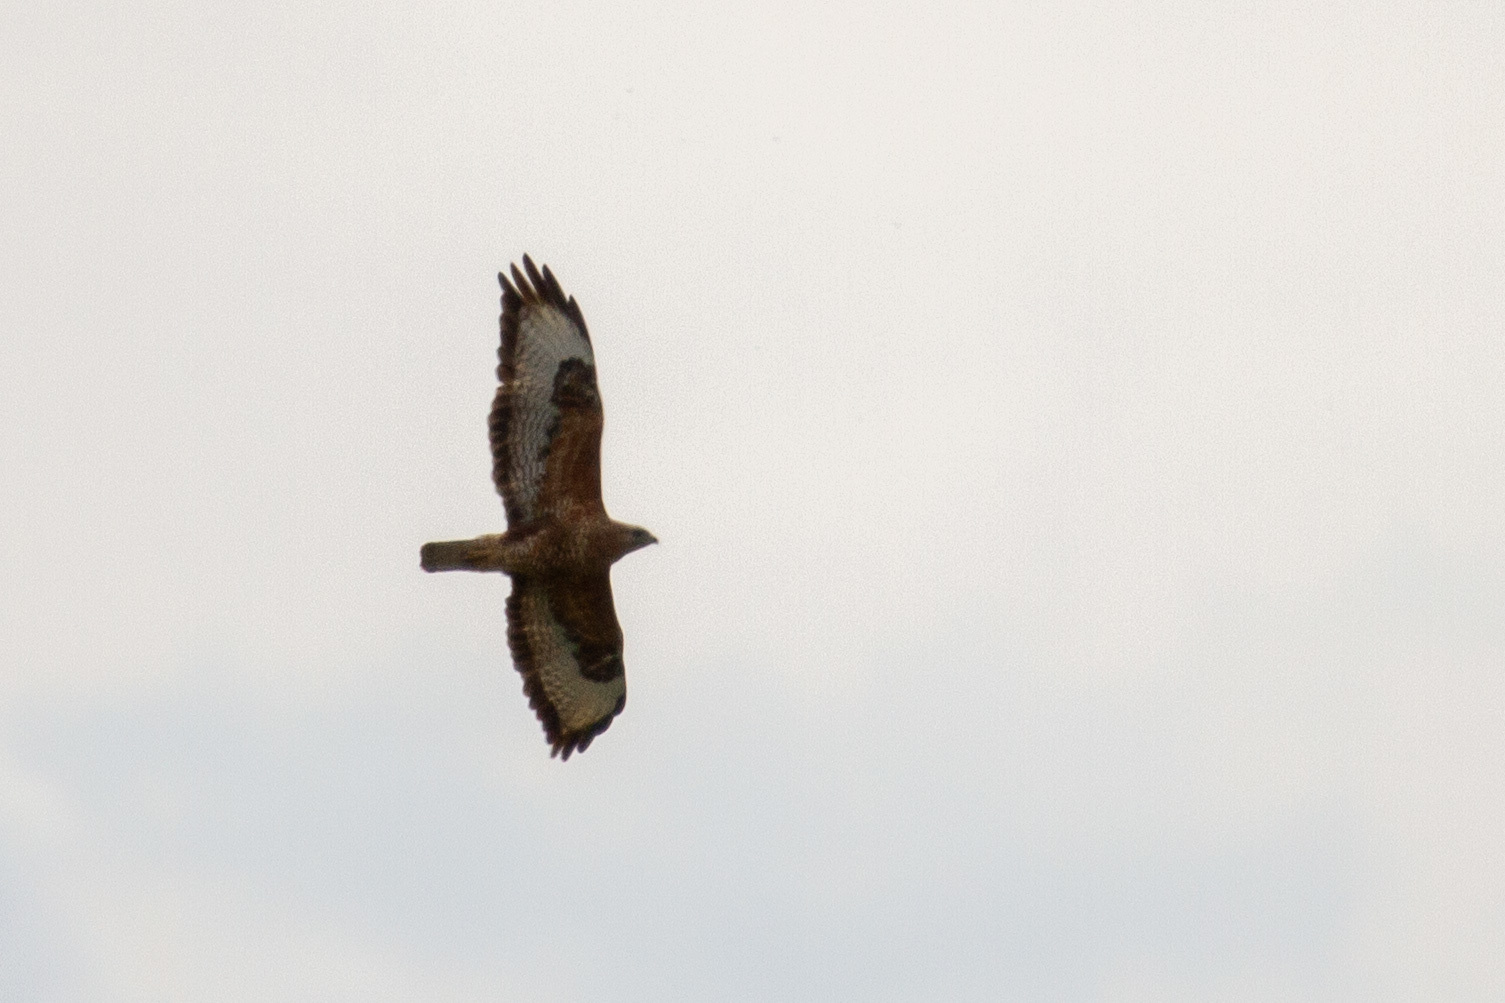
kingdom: Animalia
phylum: Chordata
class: Aves
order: Accipitriformes
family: Accipitridae
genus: Buteo
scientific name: Buteo buteo
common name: Common buzzard
